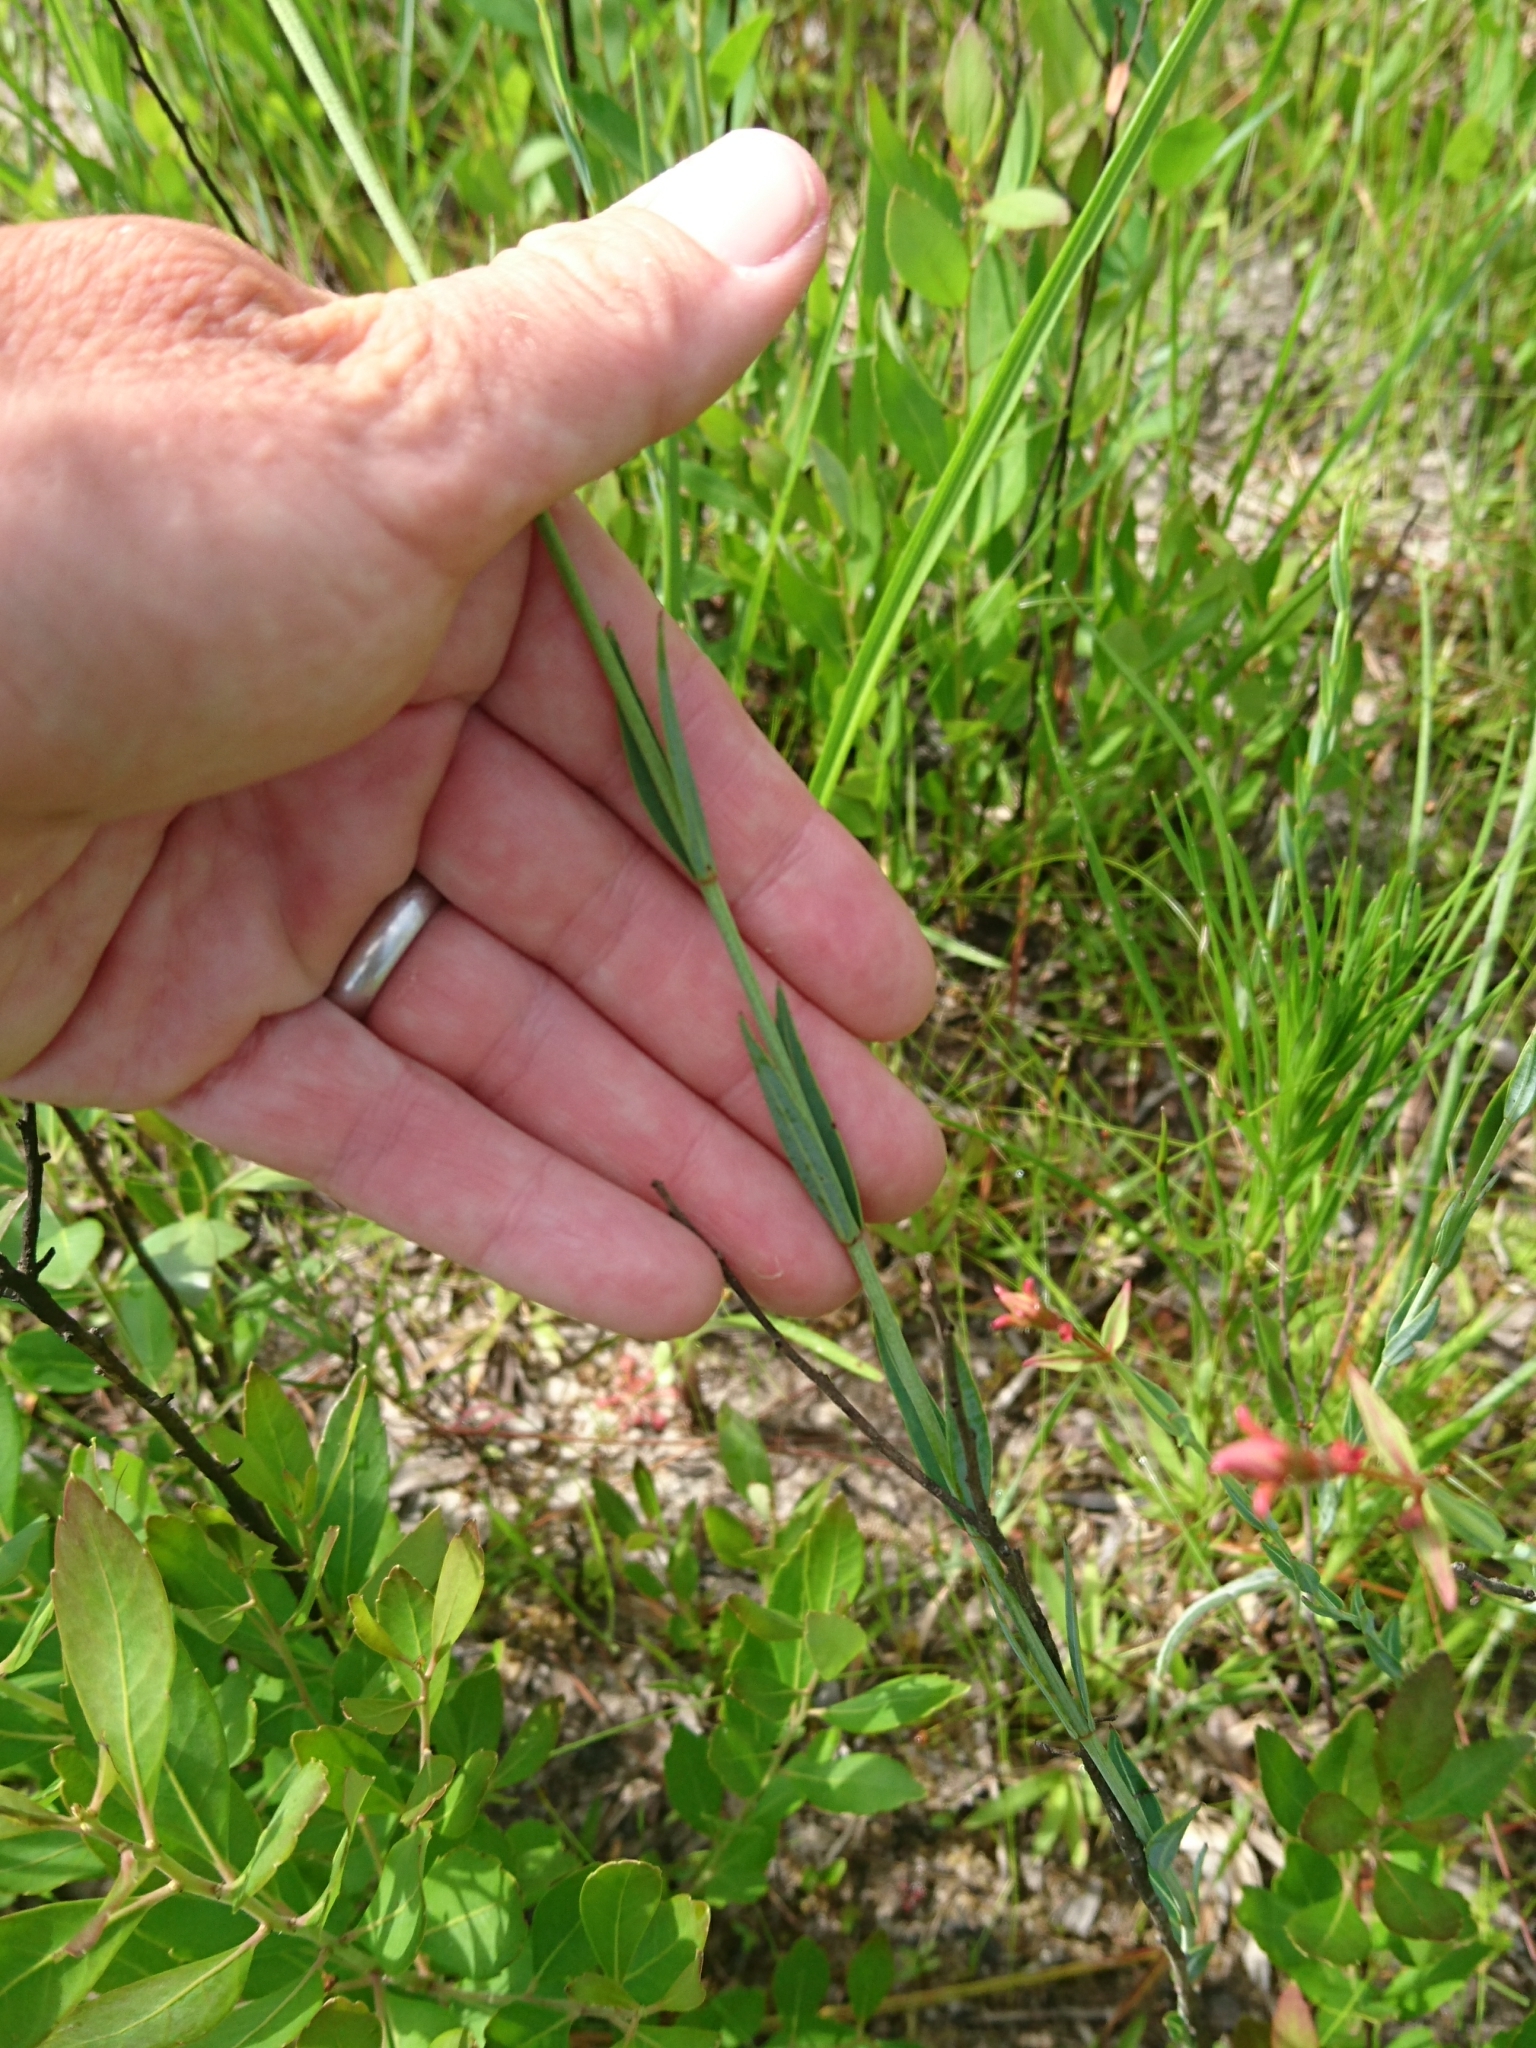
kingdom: Plantae
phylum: Tracheophyta
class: Magnoliopsida
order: Myrtales
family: Melastomataceae
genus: Rhexia
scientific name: Rhexia alifanus
